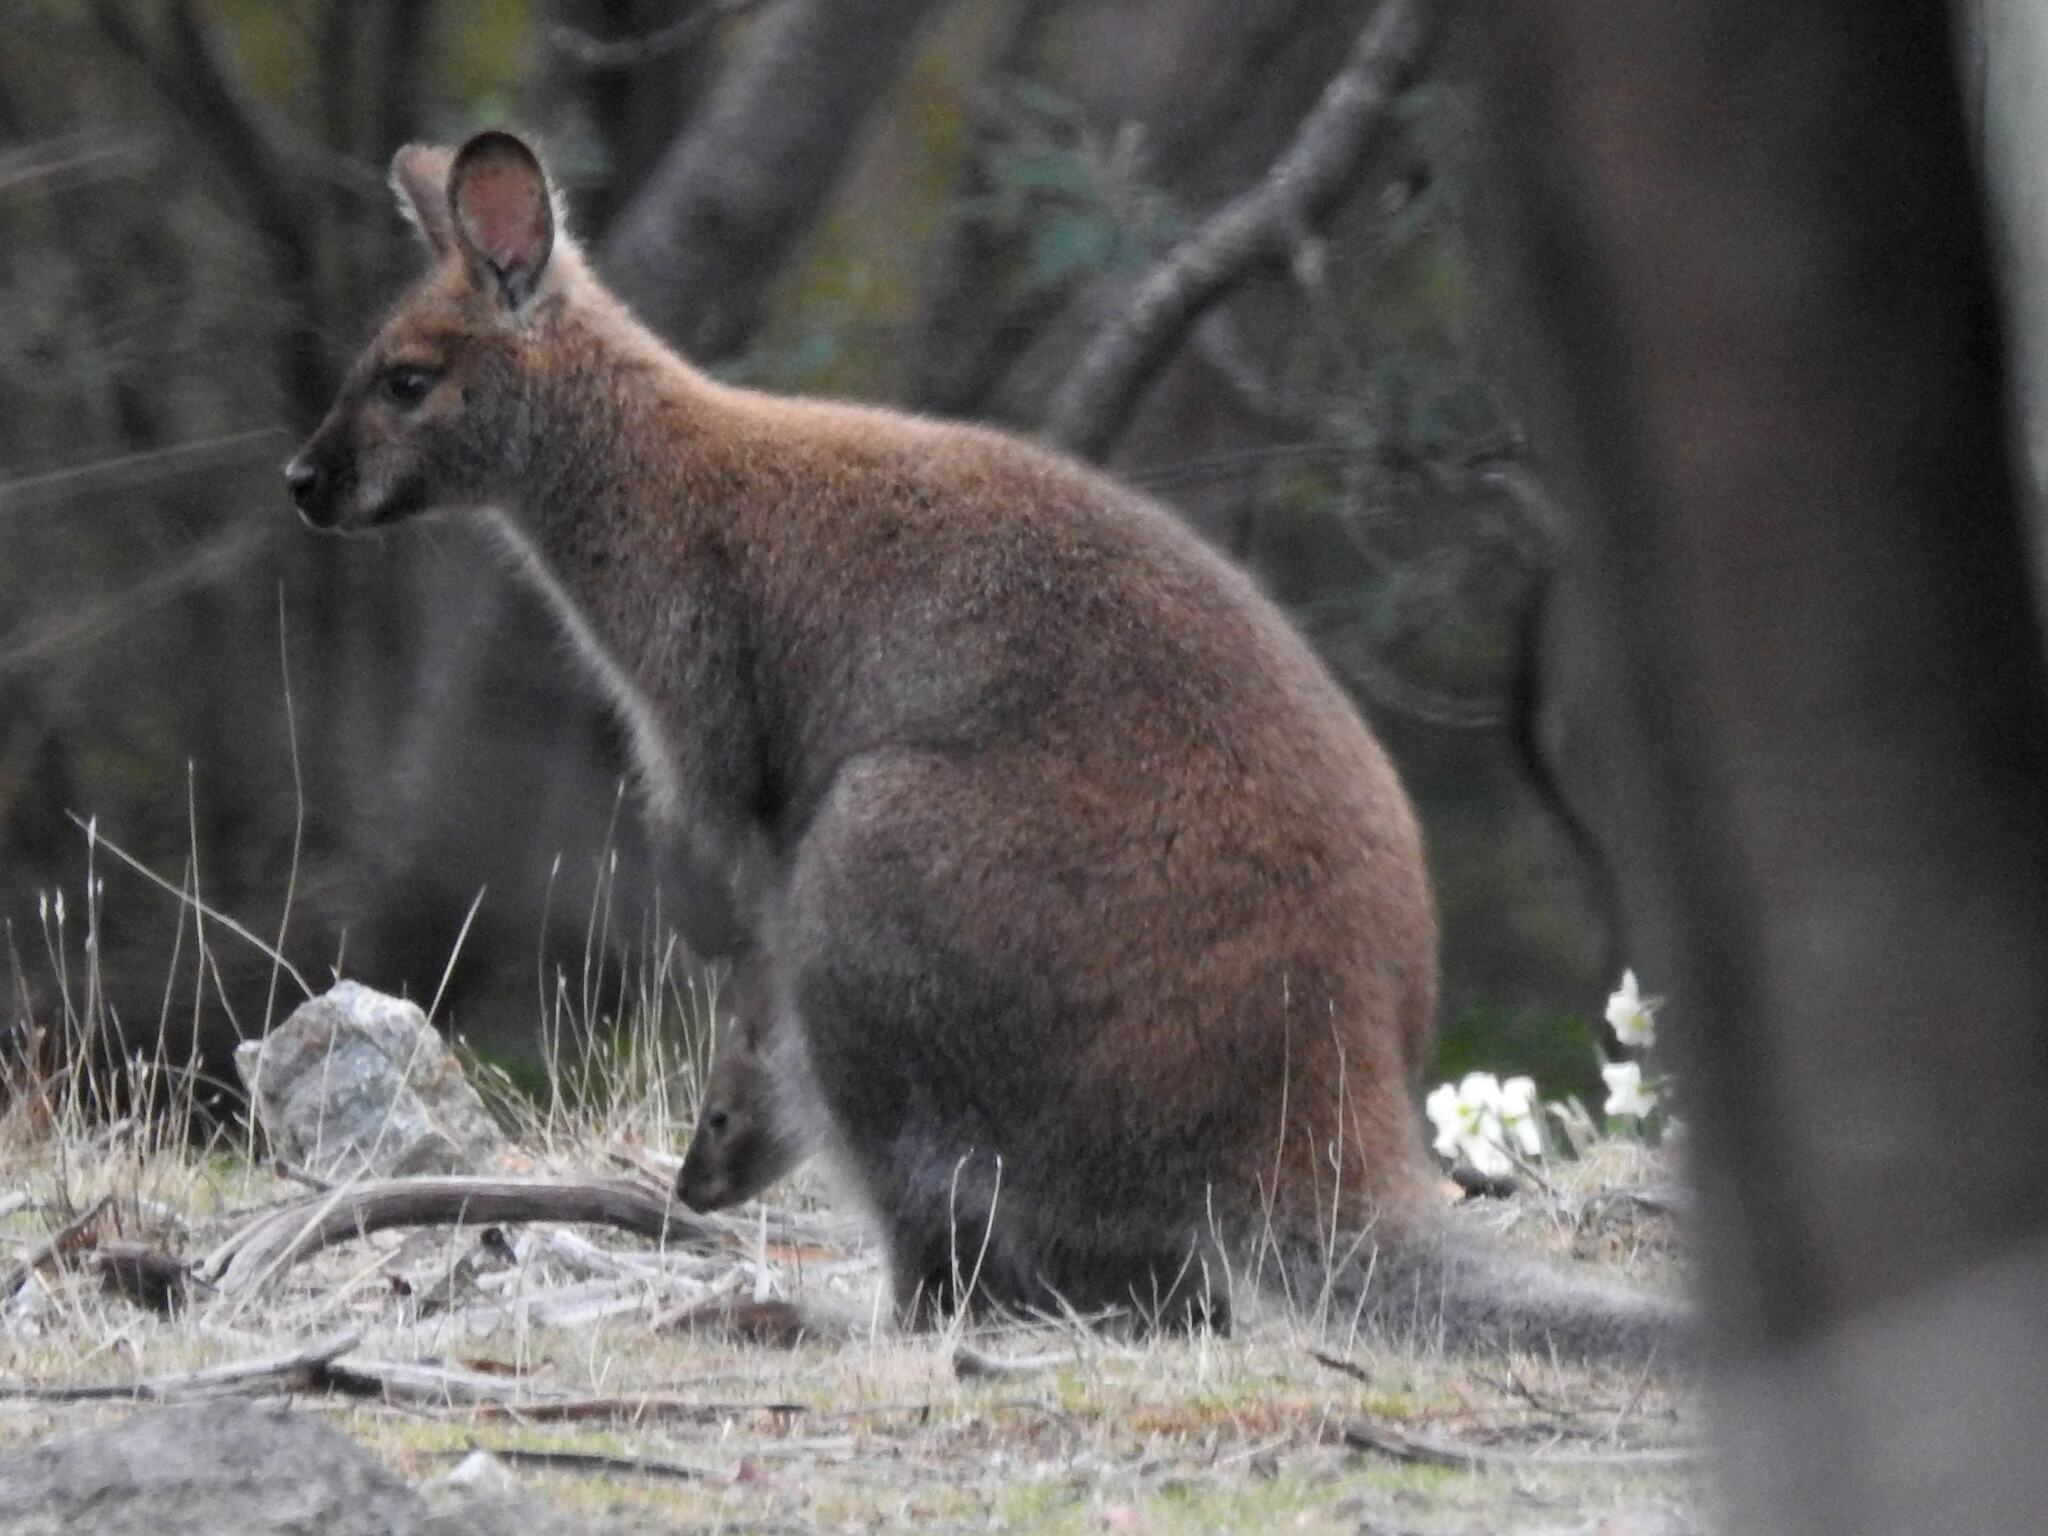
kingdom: Animalia
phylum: Chordata
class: Mammalia
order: Diprotodontia
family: Macropodidae
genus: Notamacropus
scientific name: Notamacropus rufogriseus
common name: Red-necked wallaby
